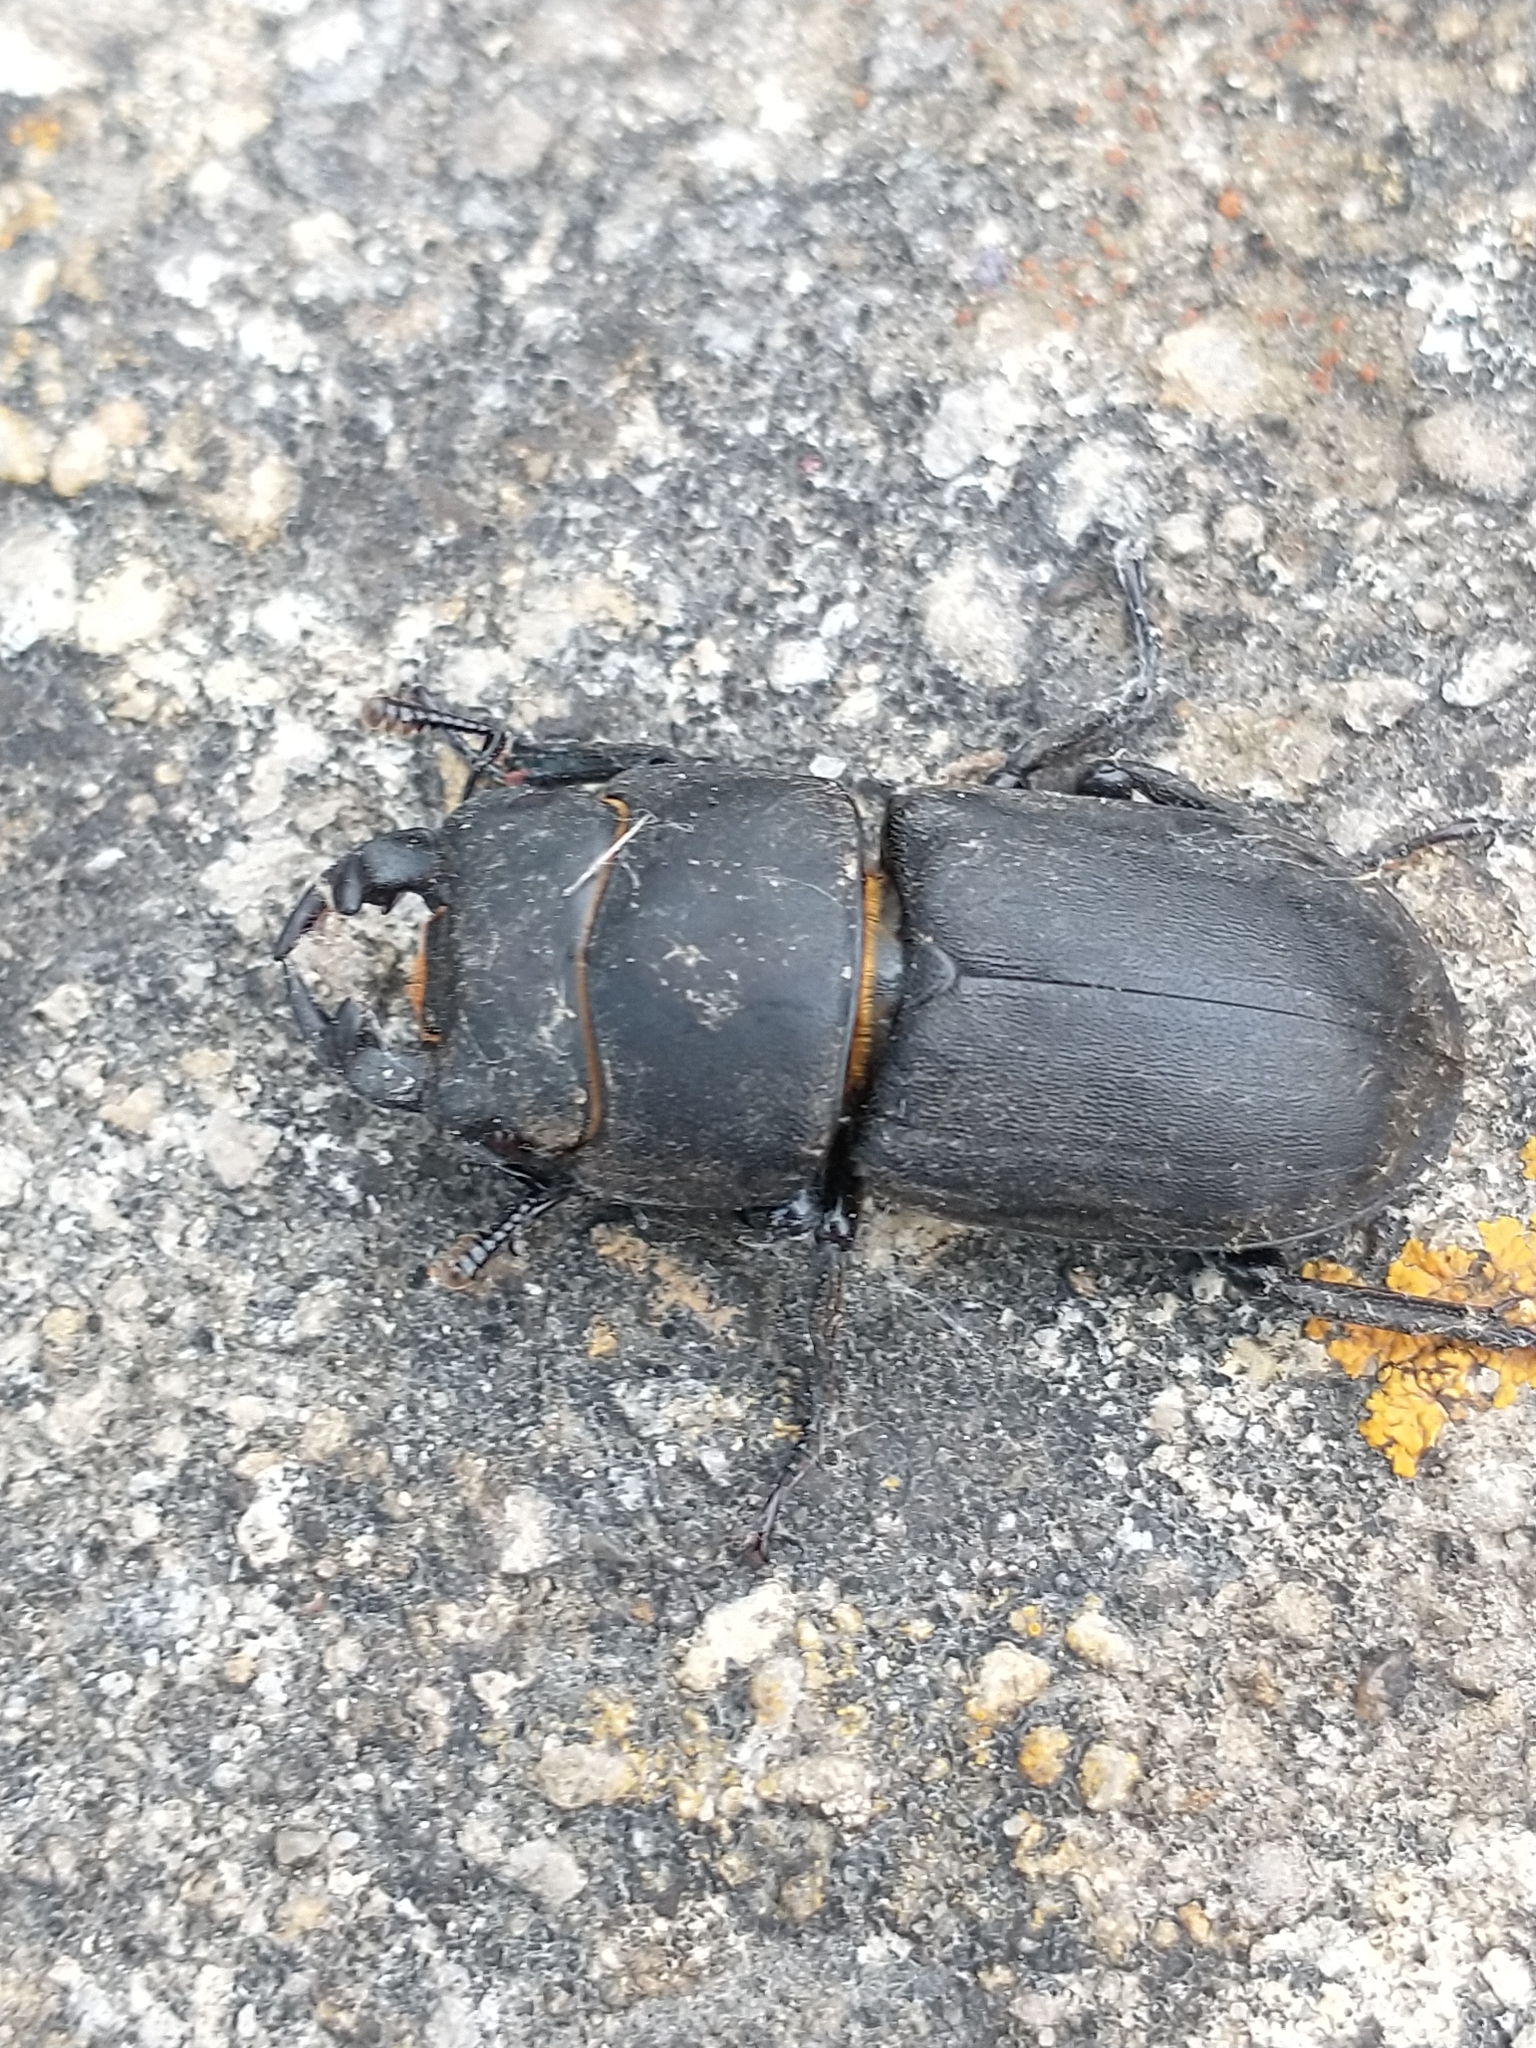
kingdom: Animalia
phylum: Arthropoda
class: Insecta
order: Coleoptera
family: Lucanidae
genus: Dorcus
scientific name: Dorcus parallelipipedus
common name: Lesser stag beetle
